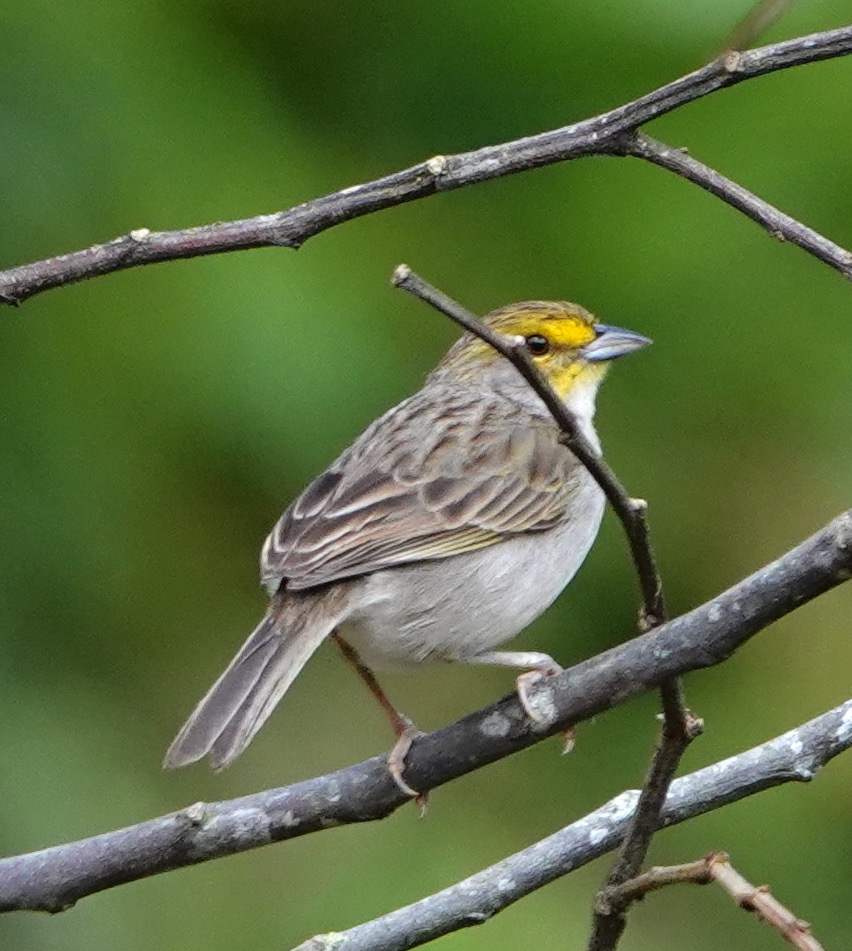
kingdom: Animalia
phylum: Chordata
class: Aves
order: Passeriformes
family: Passerellidae
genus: Ammodramus
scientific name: Ammodramus aurifrons
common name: Yellow-browed sparrow
